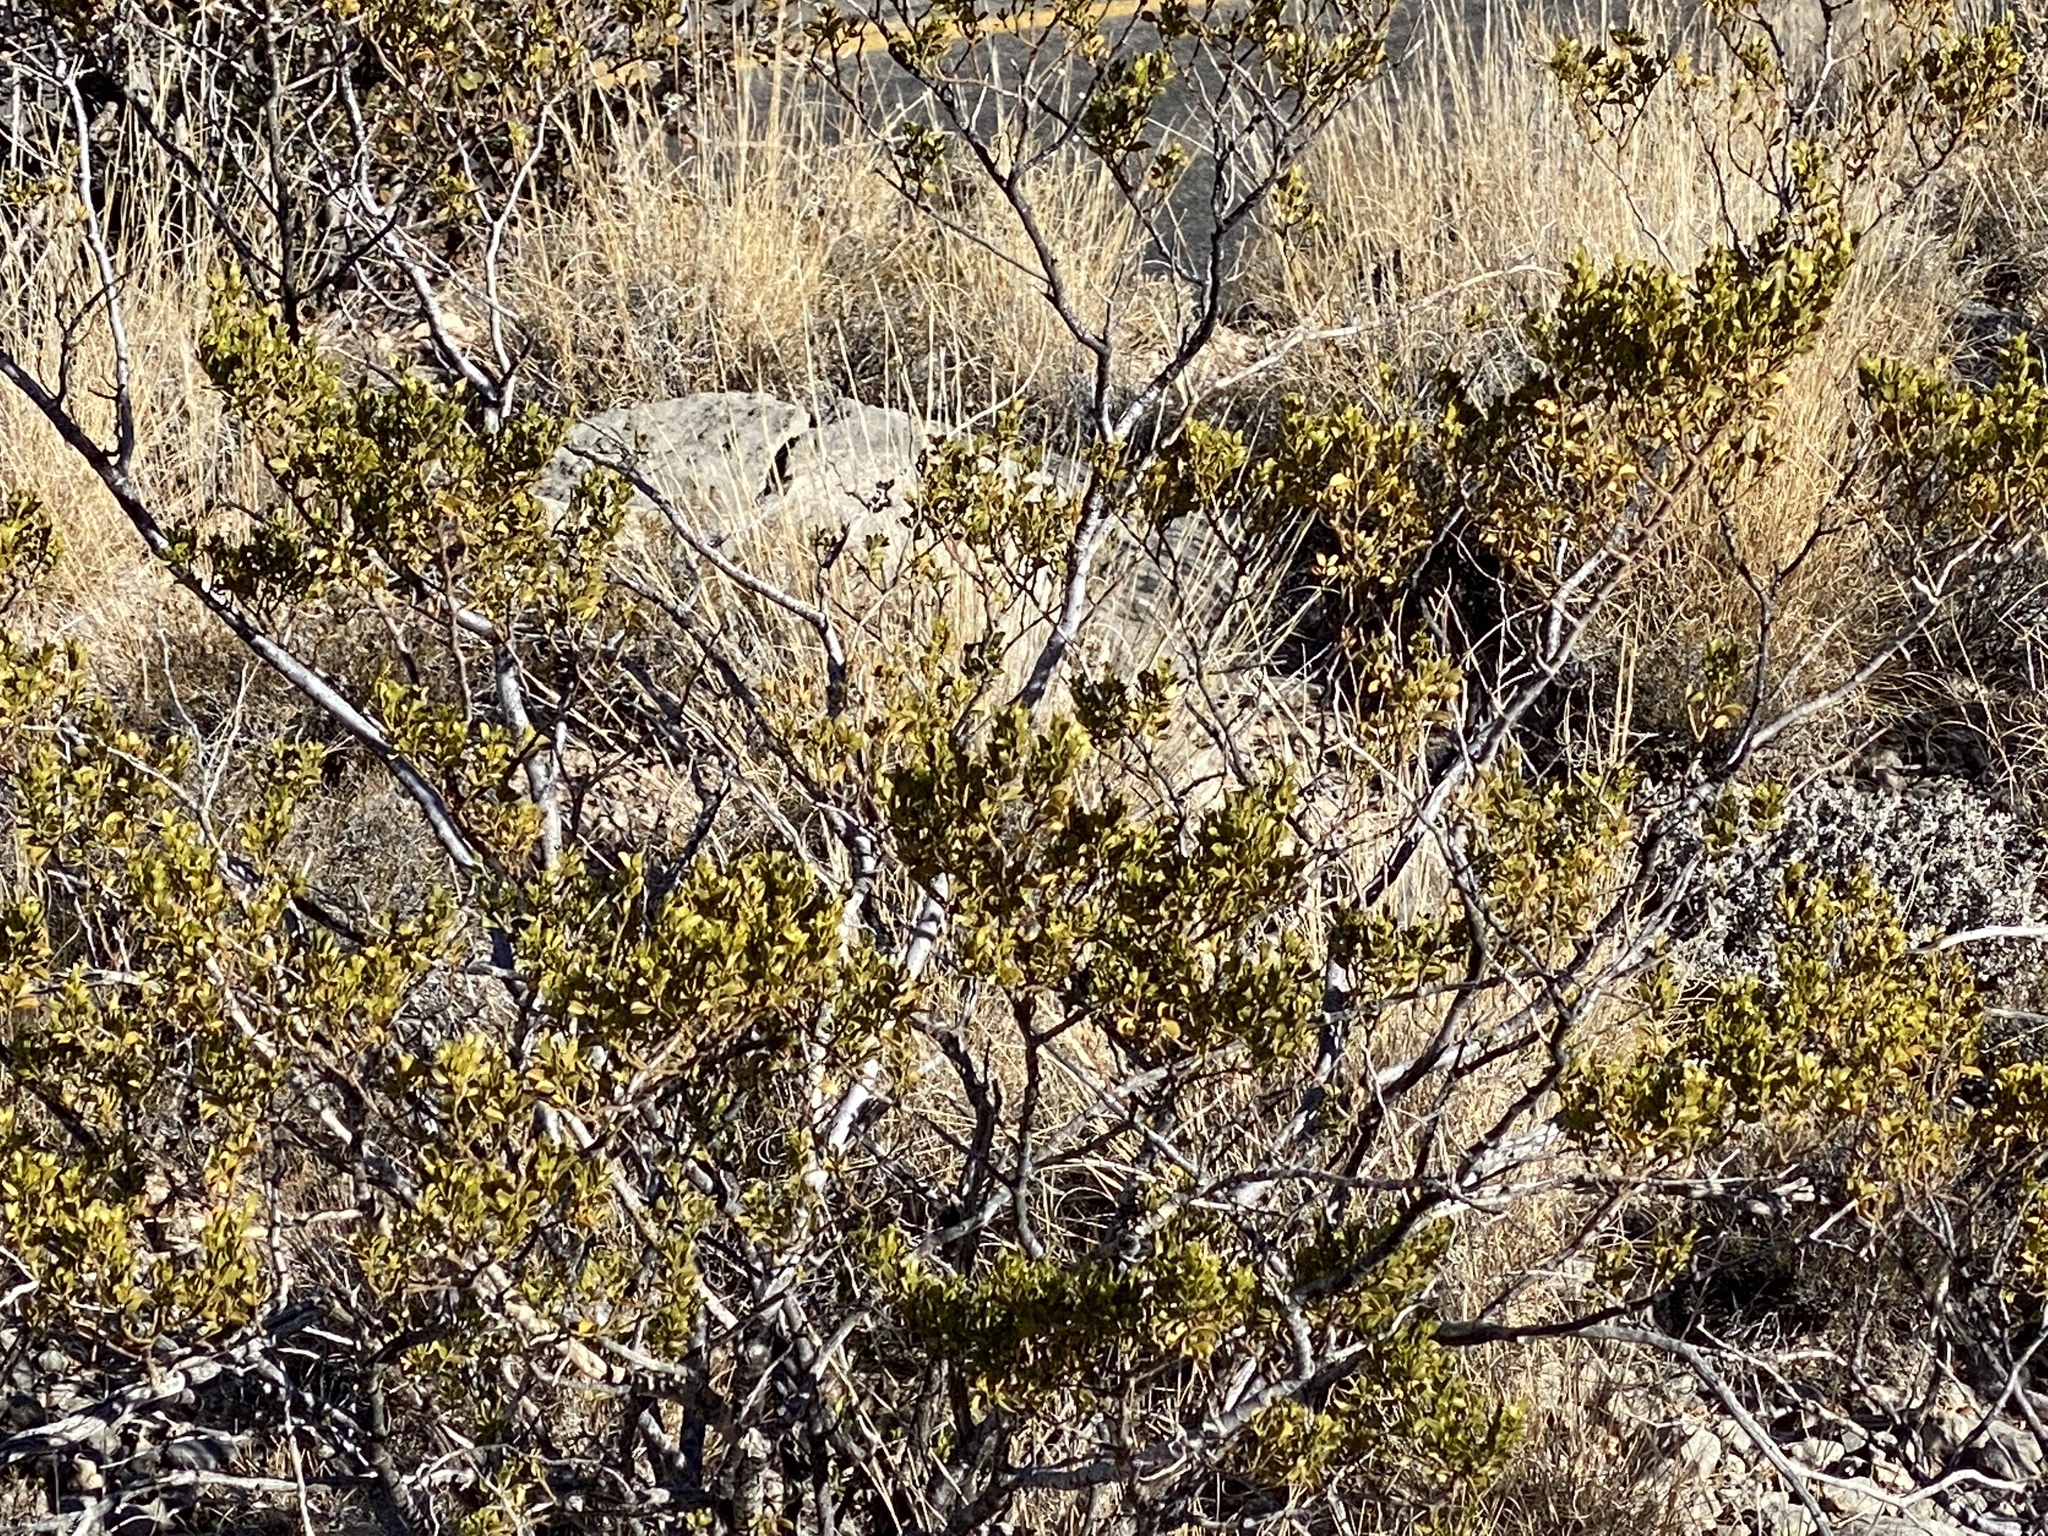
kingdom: Plantae
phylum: Tracheophyta
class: Magnoliopsida
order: Zygophyllales
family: Zygophyllaceae
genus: Larrea
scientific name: Larrea tridentata
